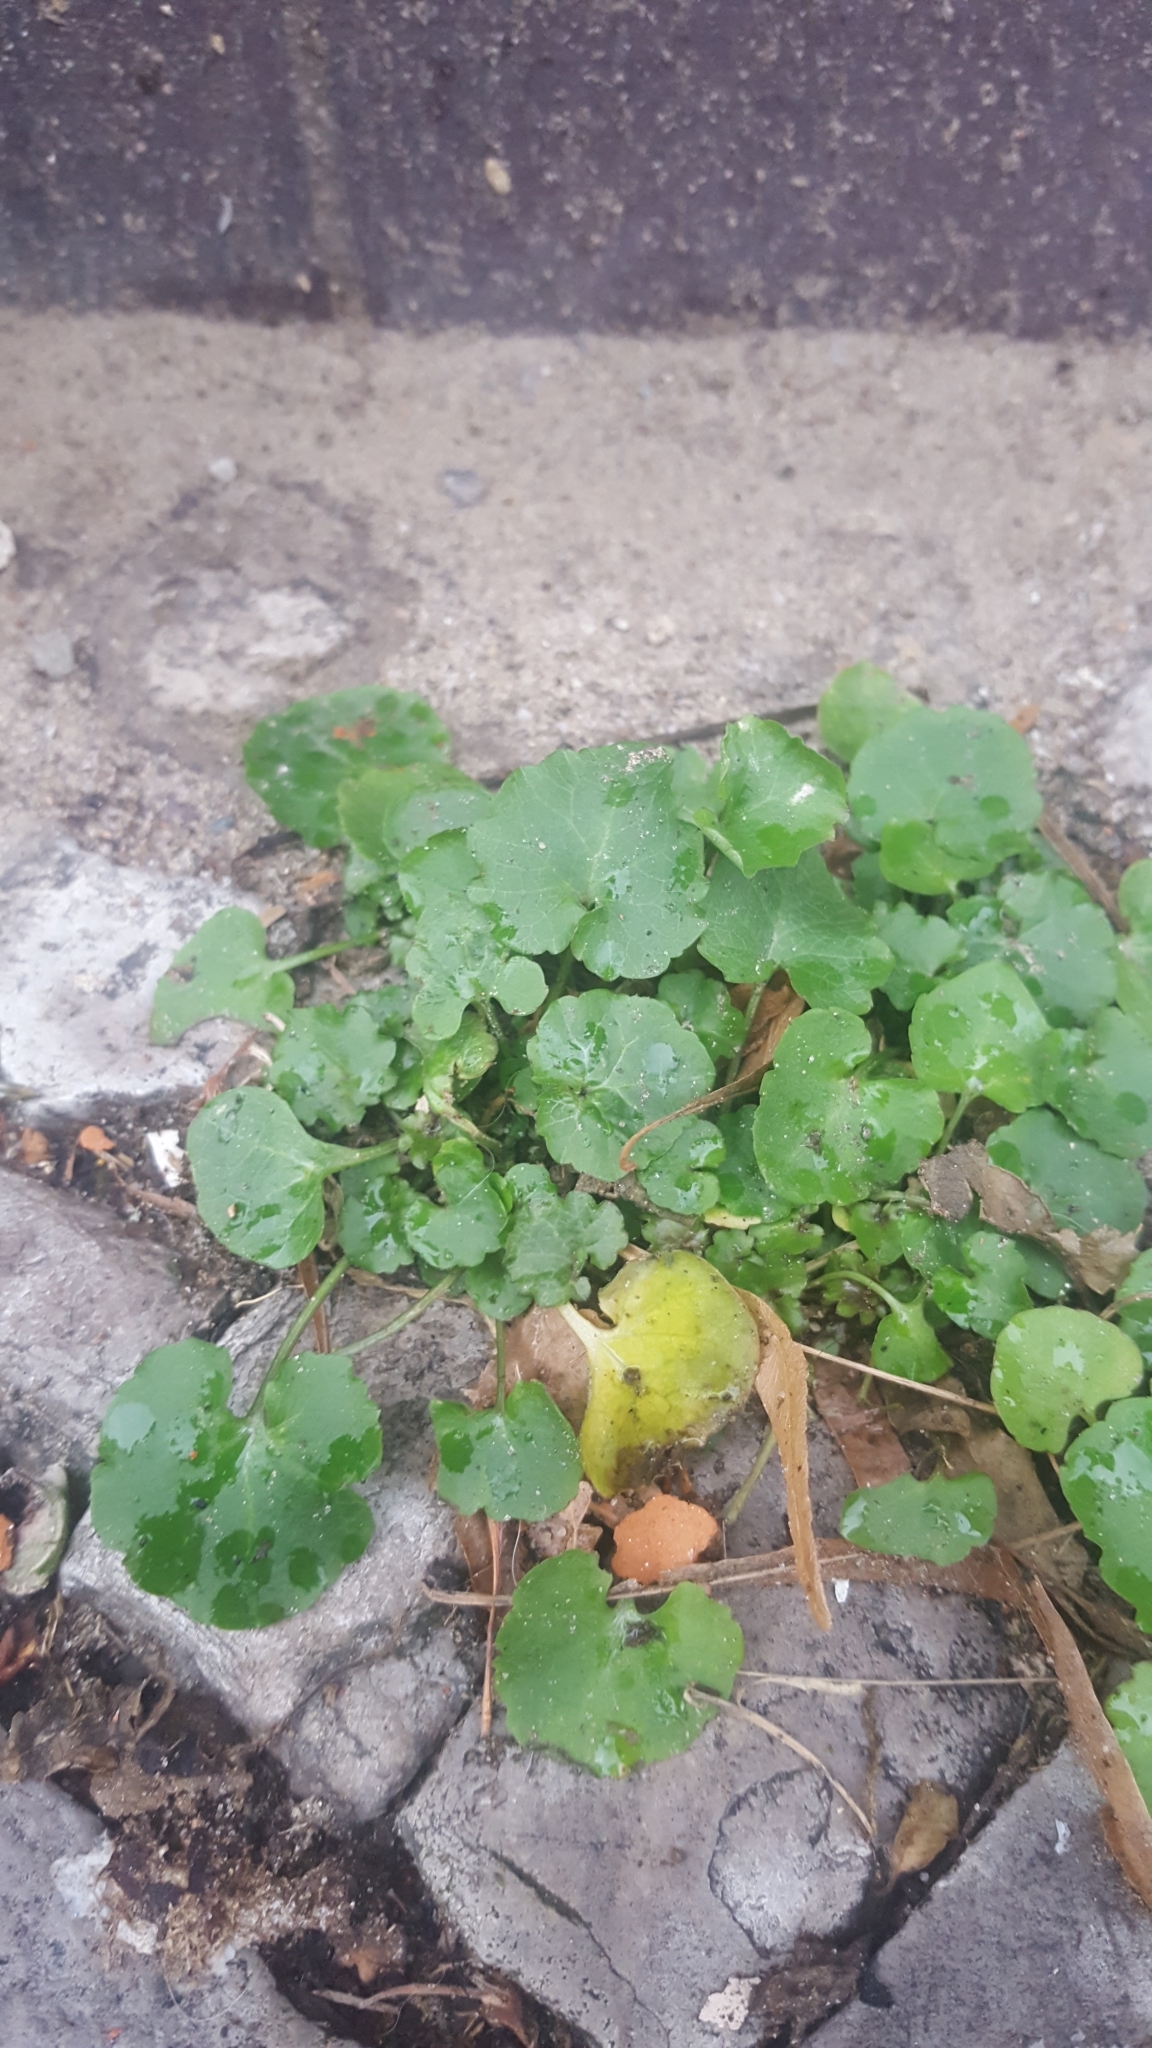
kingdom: Plantae
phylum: Tracheophyta
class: Magnoliopsida
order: Asterales
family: Campanulaceae
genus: Campanula
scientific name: Campanula poscharskyana
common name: Trailing bellflower
